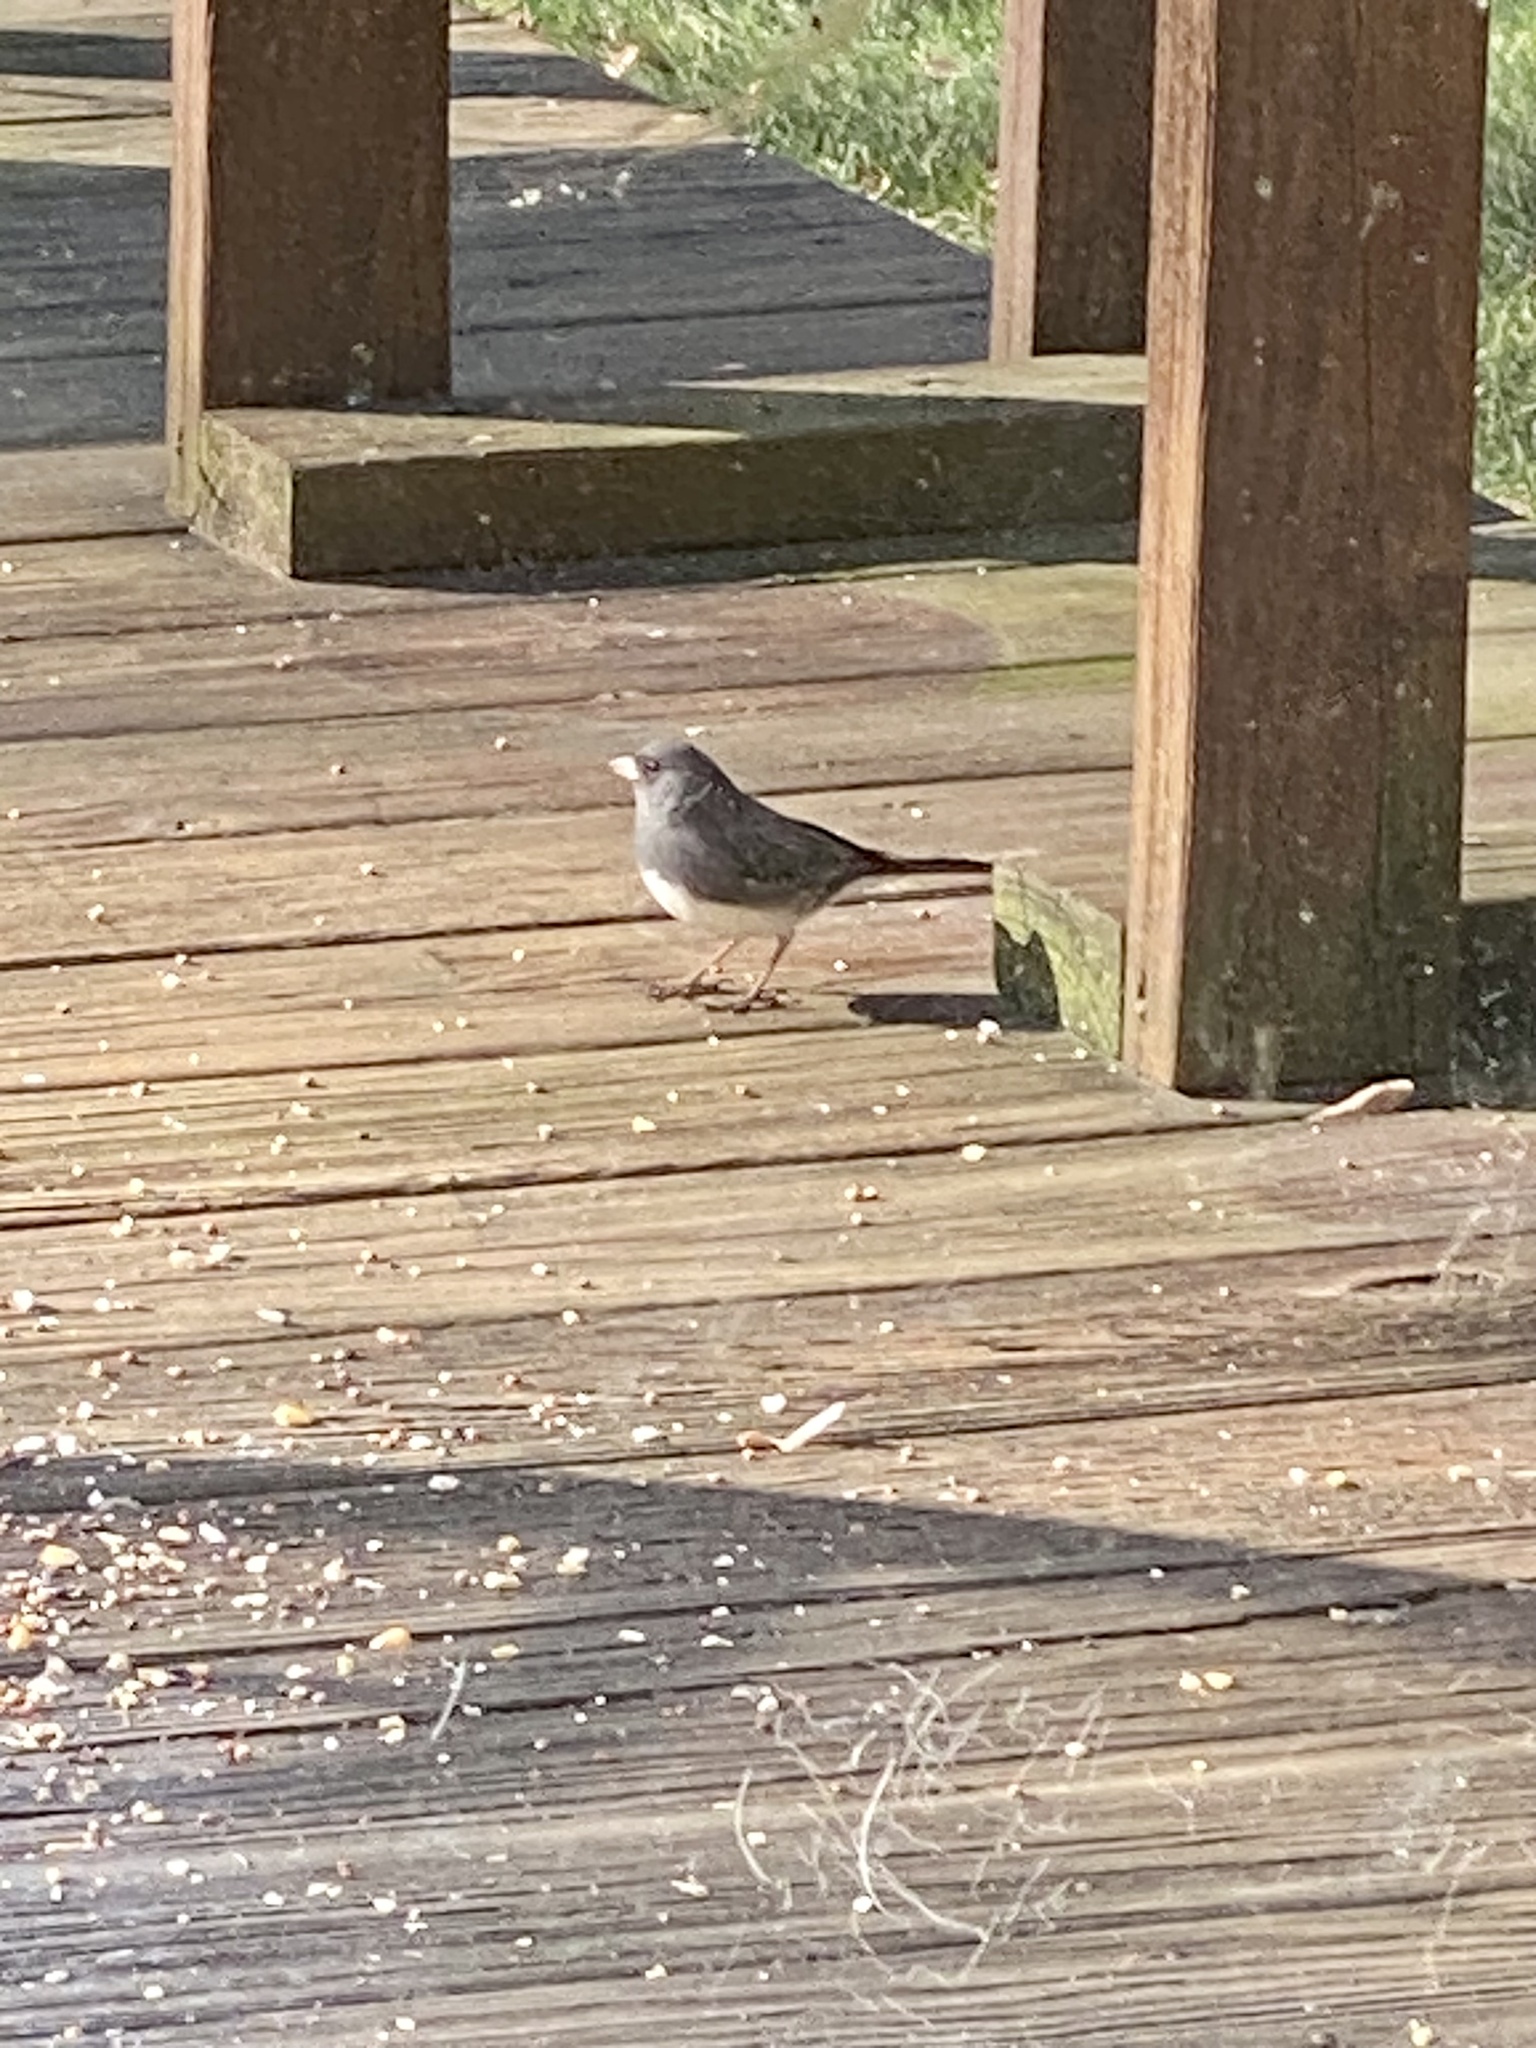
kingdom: Animalia
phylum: Chordata
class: Aves
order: Passeriformes
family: Passerellidae
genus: Junco
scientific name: Junco hyemalis
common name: Dark-eyed junco
